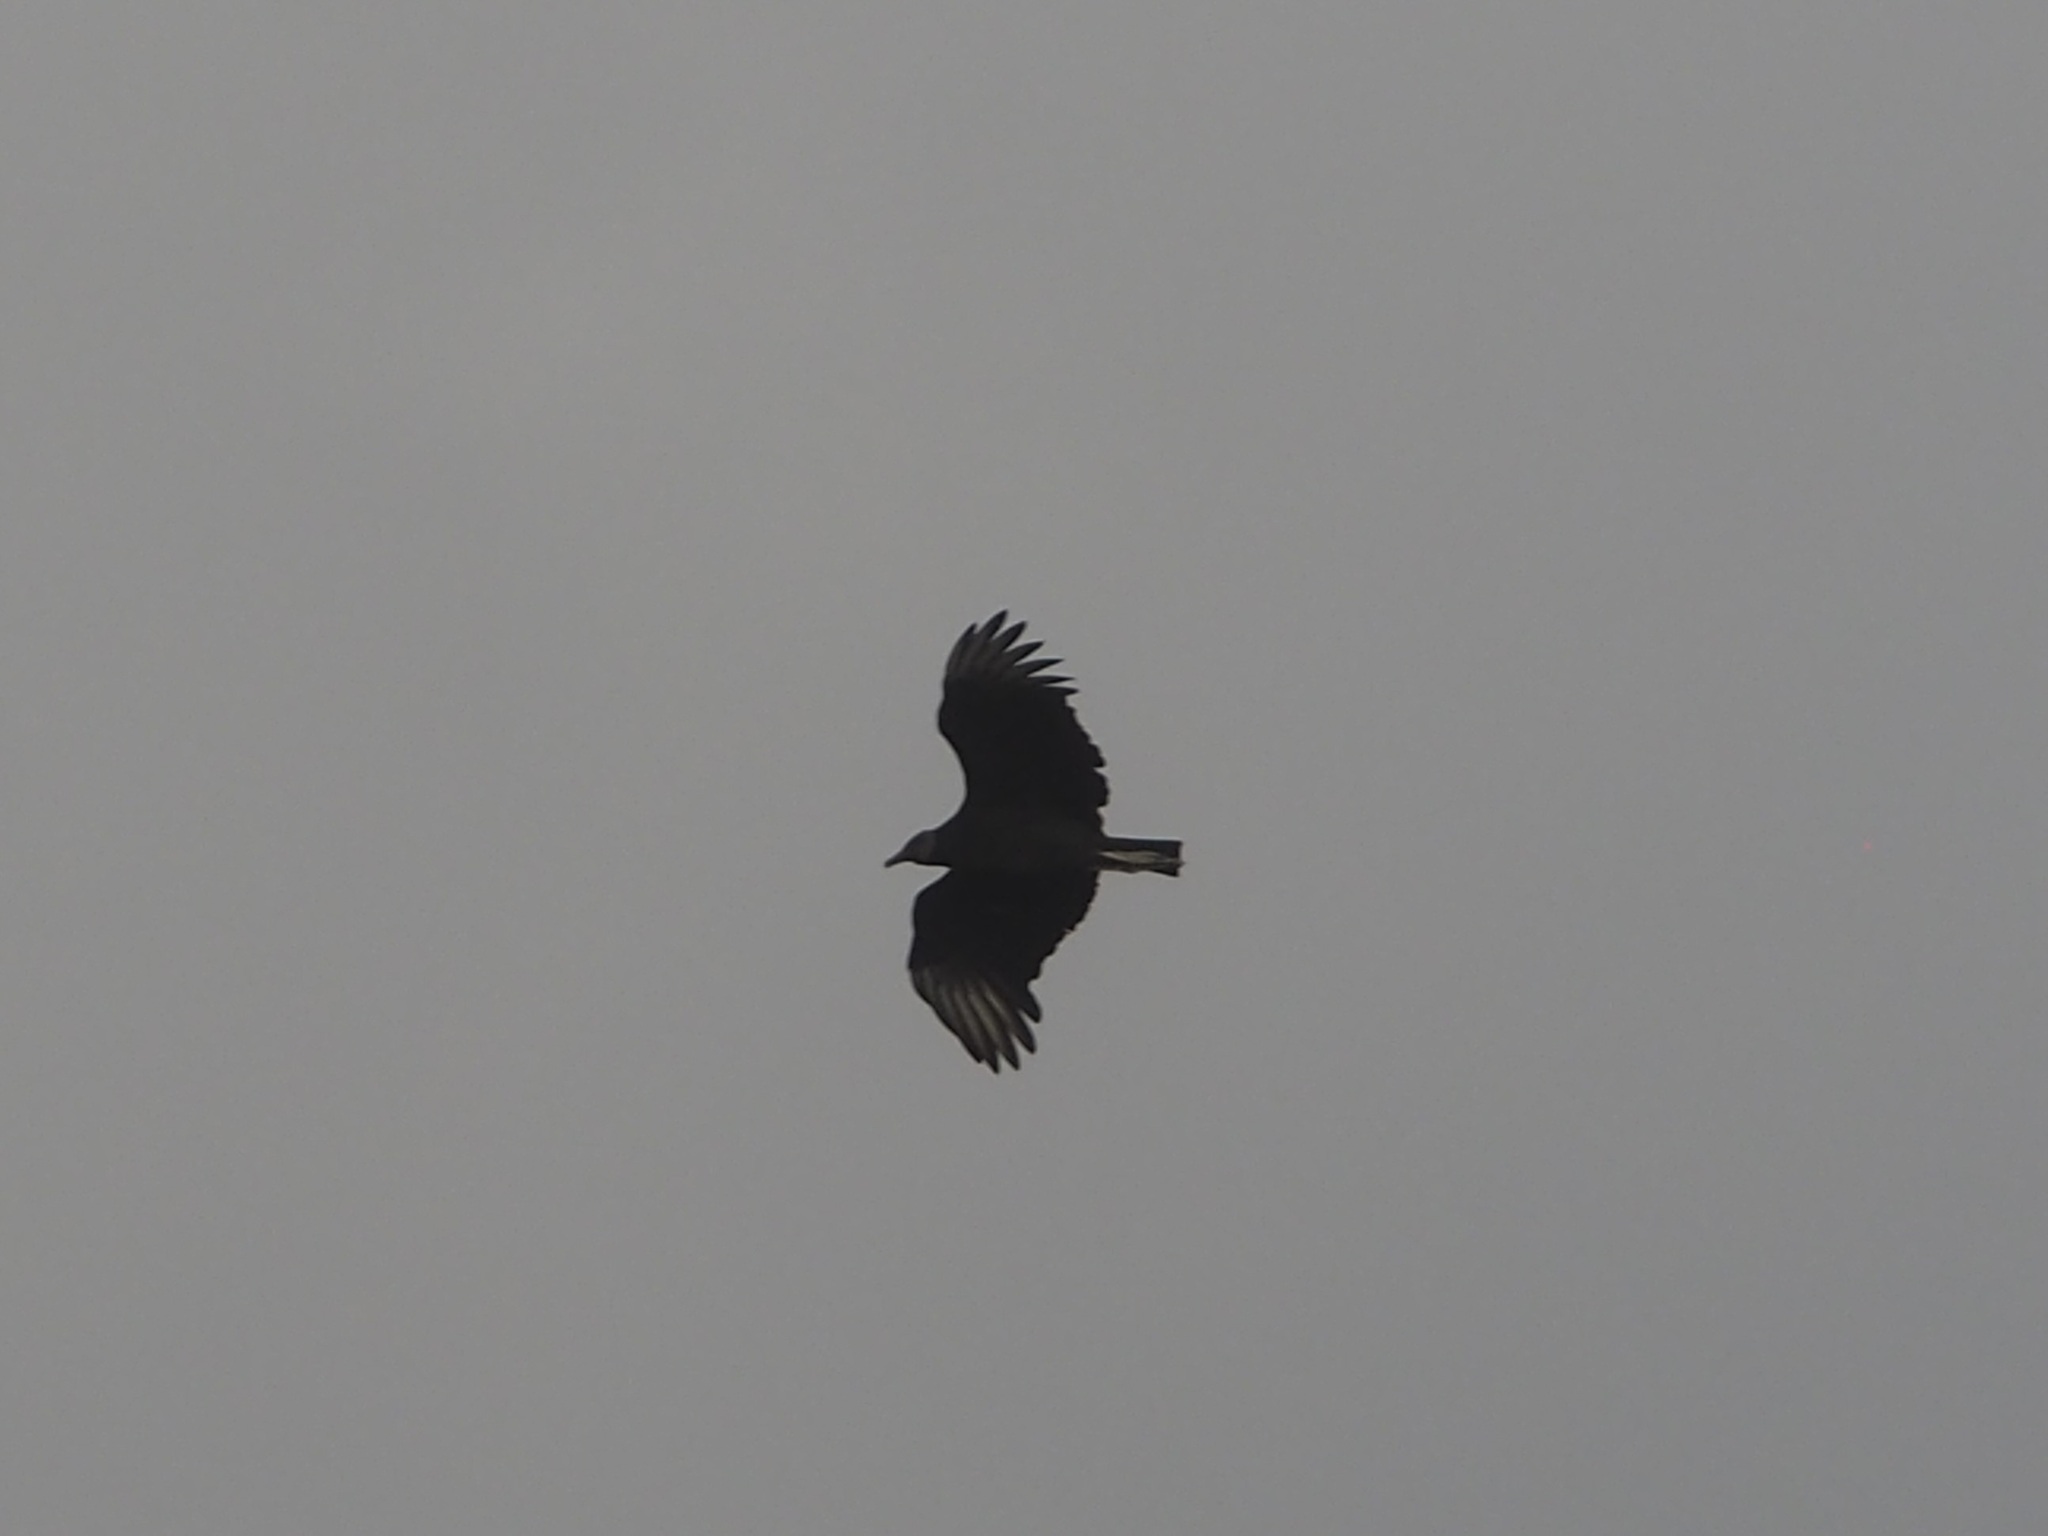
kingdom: Animalia
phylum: Chordata
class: Aves
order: Accipitriformes
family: Cathartidae
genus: Coragyps
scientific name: Coragyps atratus
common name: Black vulture
